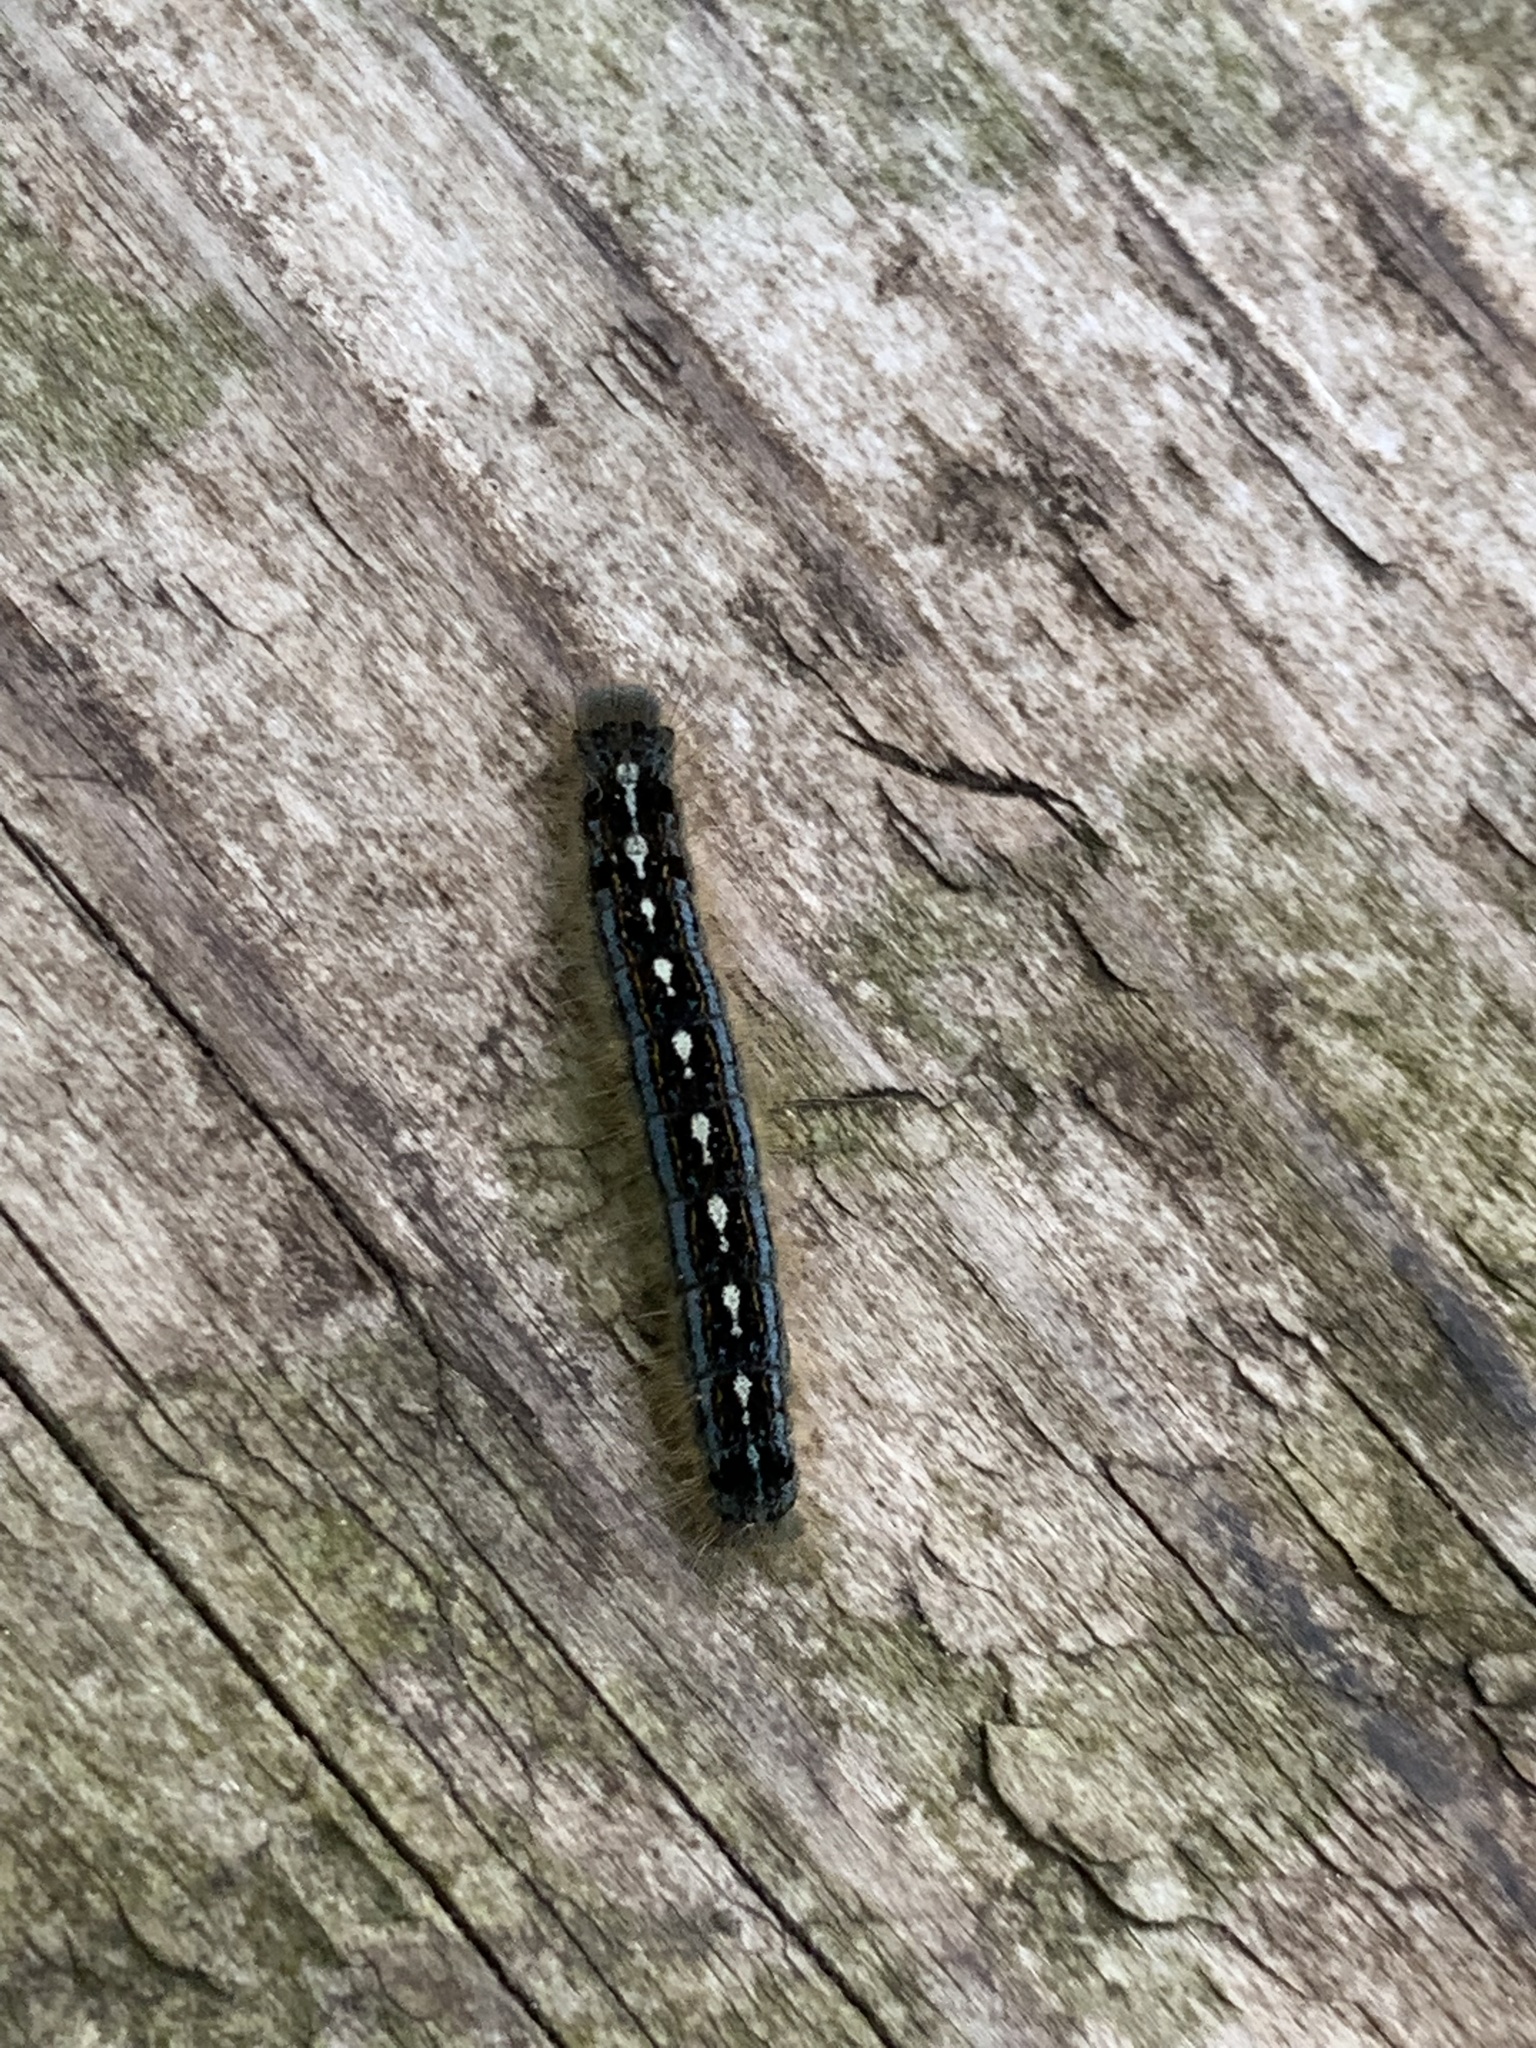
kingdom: Animalia
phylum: Arthropoda
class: Insecta
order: Lepidoptera
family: Lasiocampidae
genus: Malacosoma
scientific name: Malacosoma disstria
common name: Forest tent caterpillar
